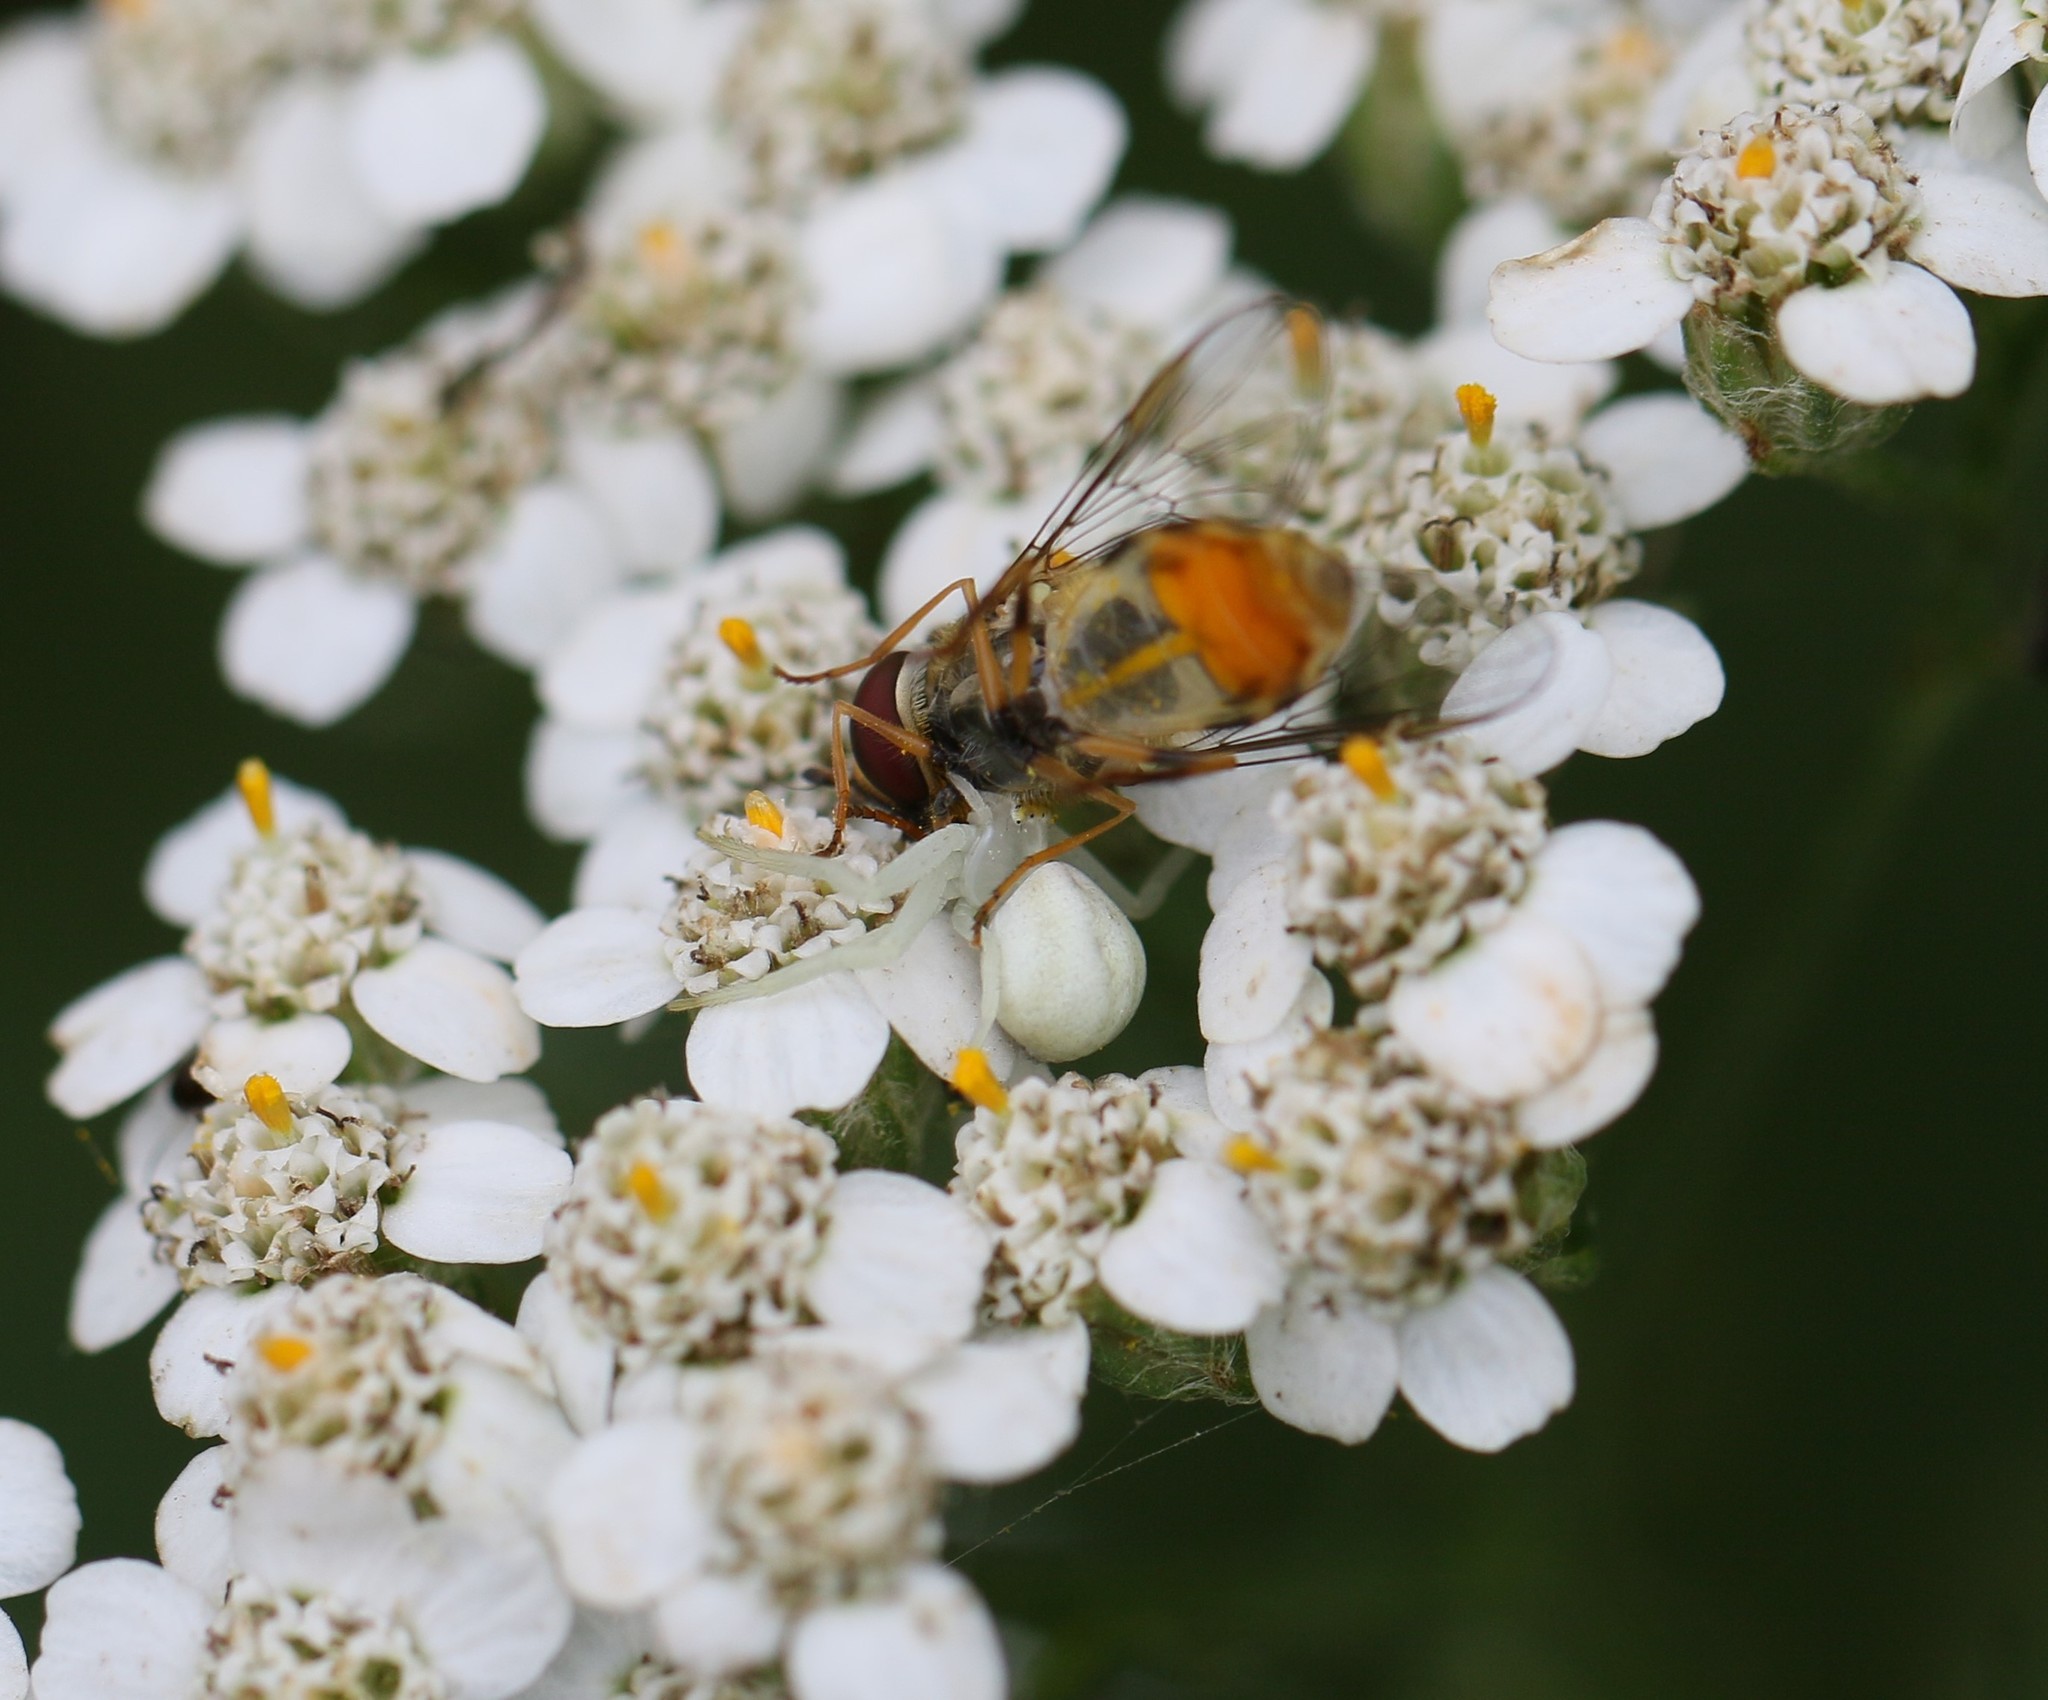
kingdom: Animalia
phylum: Arthropoda
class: Arachnida
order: Araneae
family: Thomisidae
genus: Misumena
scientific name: Misumena vatia
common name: Goldenrod crab spider
